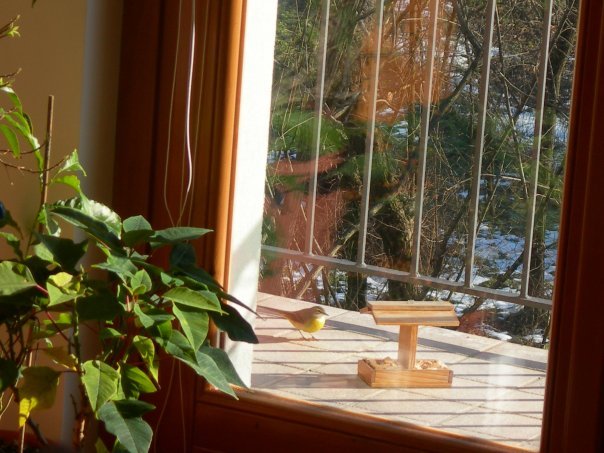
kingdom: Animalia
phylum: Chordata
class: Aves
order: Passeriformes
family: Motacillidae
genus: Motacilla
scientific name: Motacilla cinerea
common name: Grey wagtail
